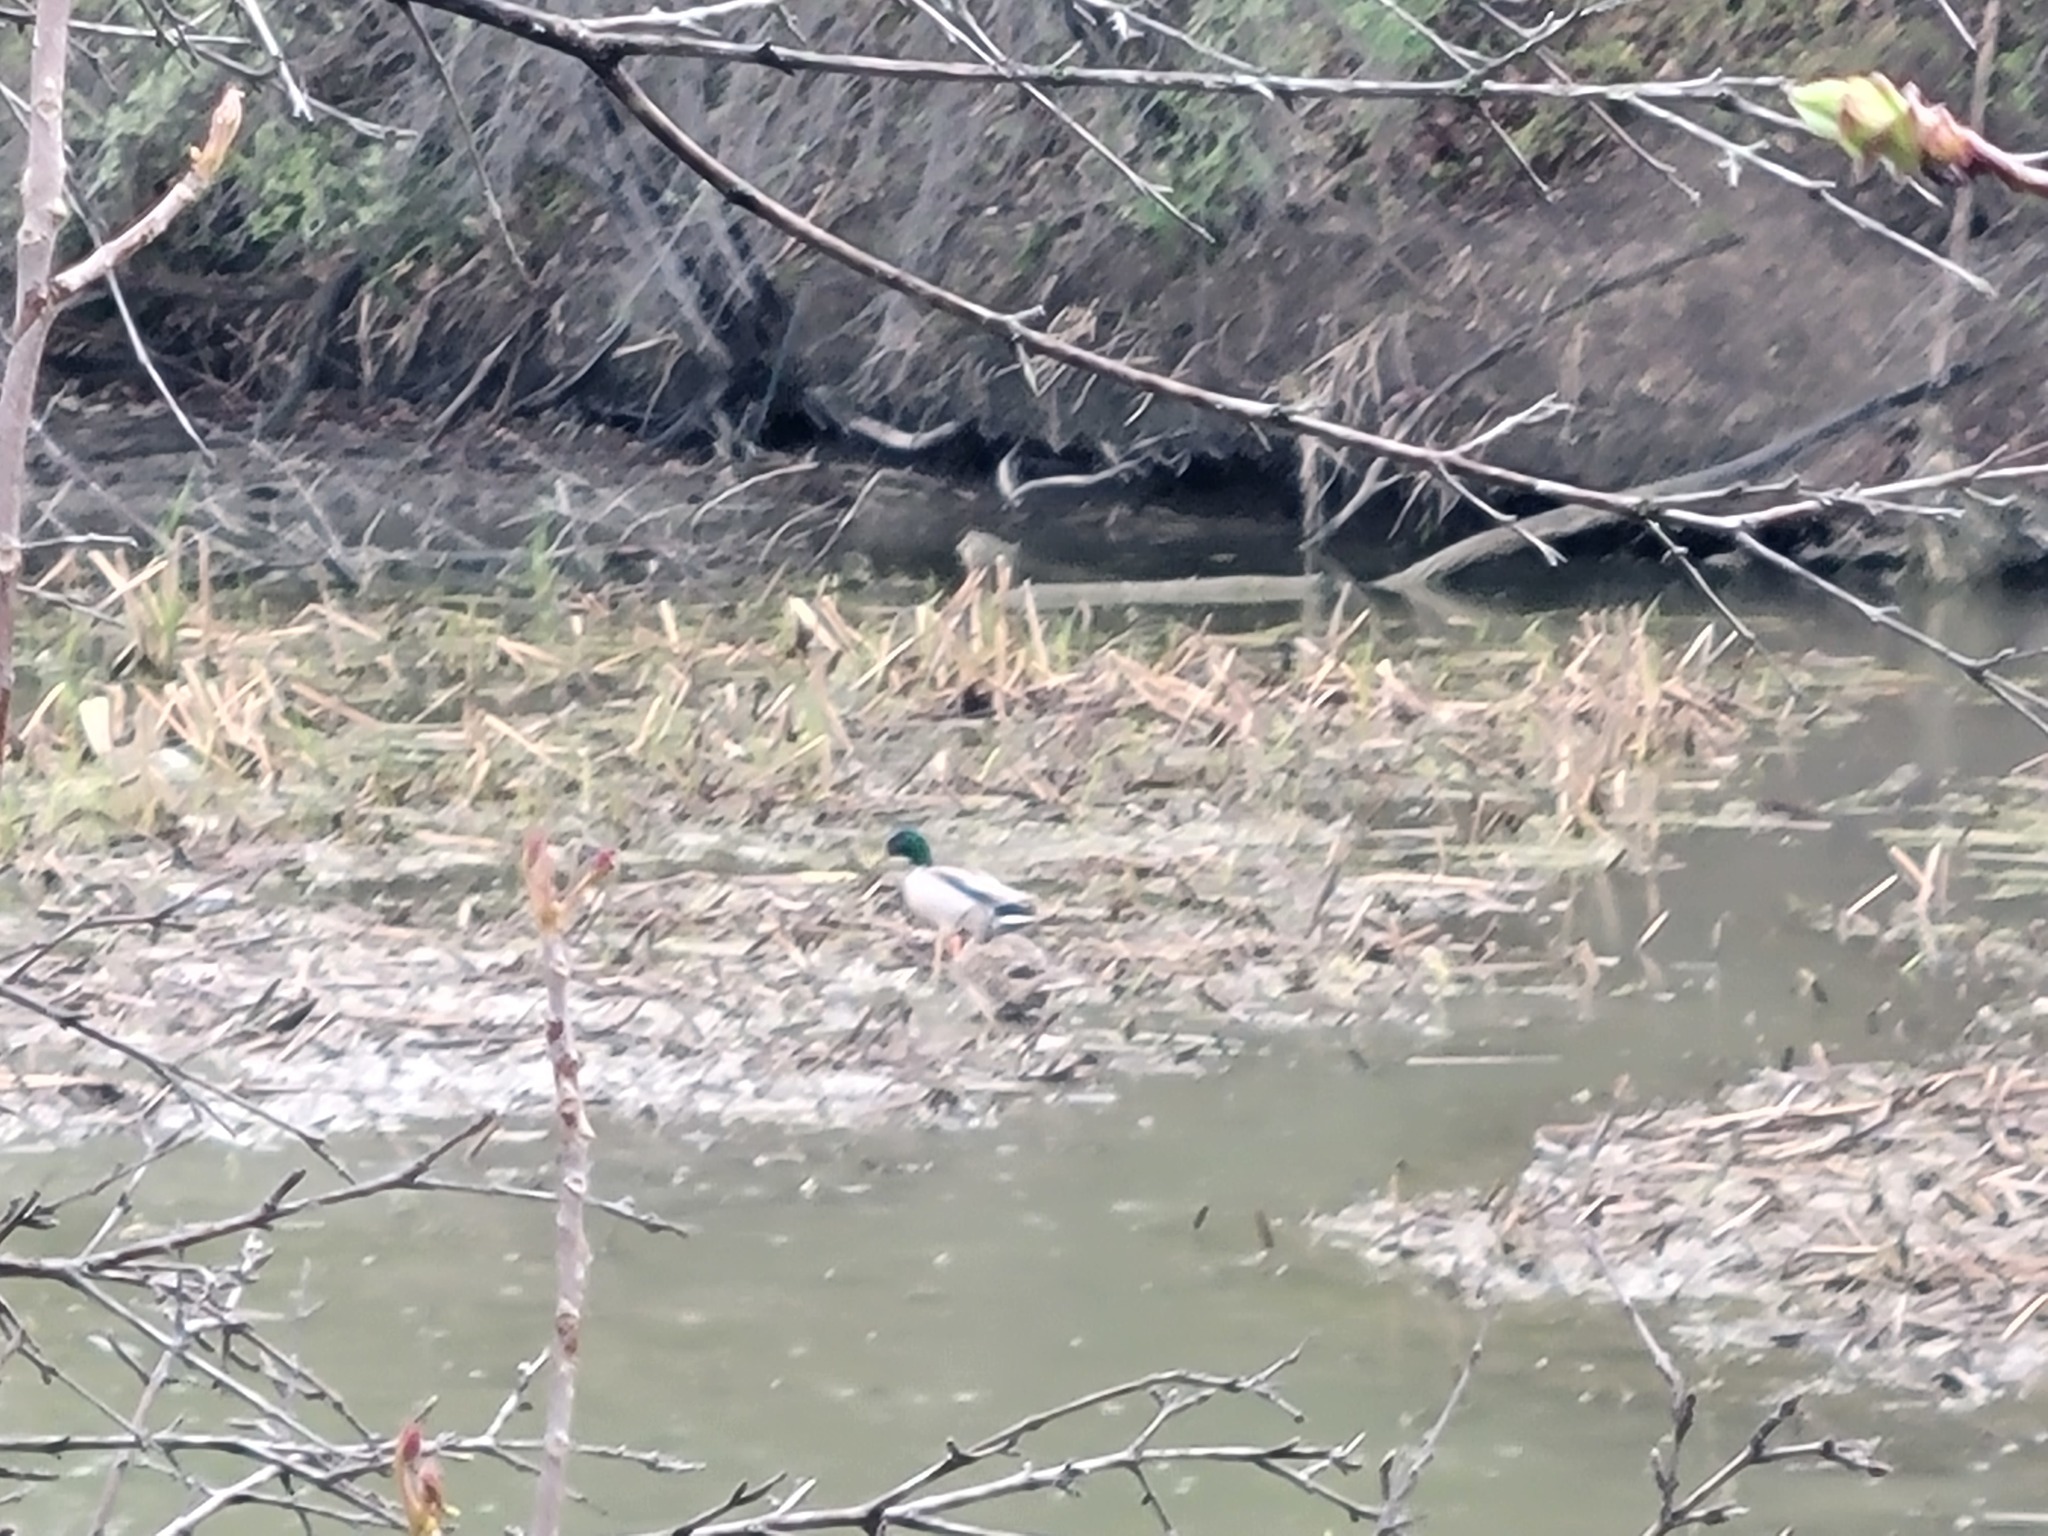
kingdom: Animalia
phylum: Chordata
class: Aves
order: Anseriformes
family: Anatidae
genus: Anas
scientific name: Anas platyrhynchos
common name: Mallard
